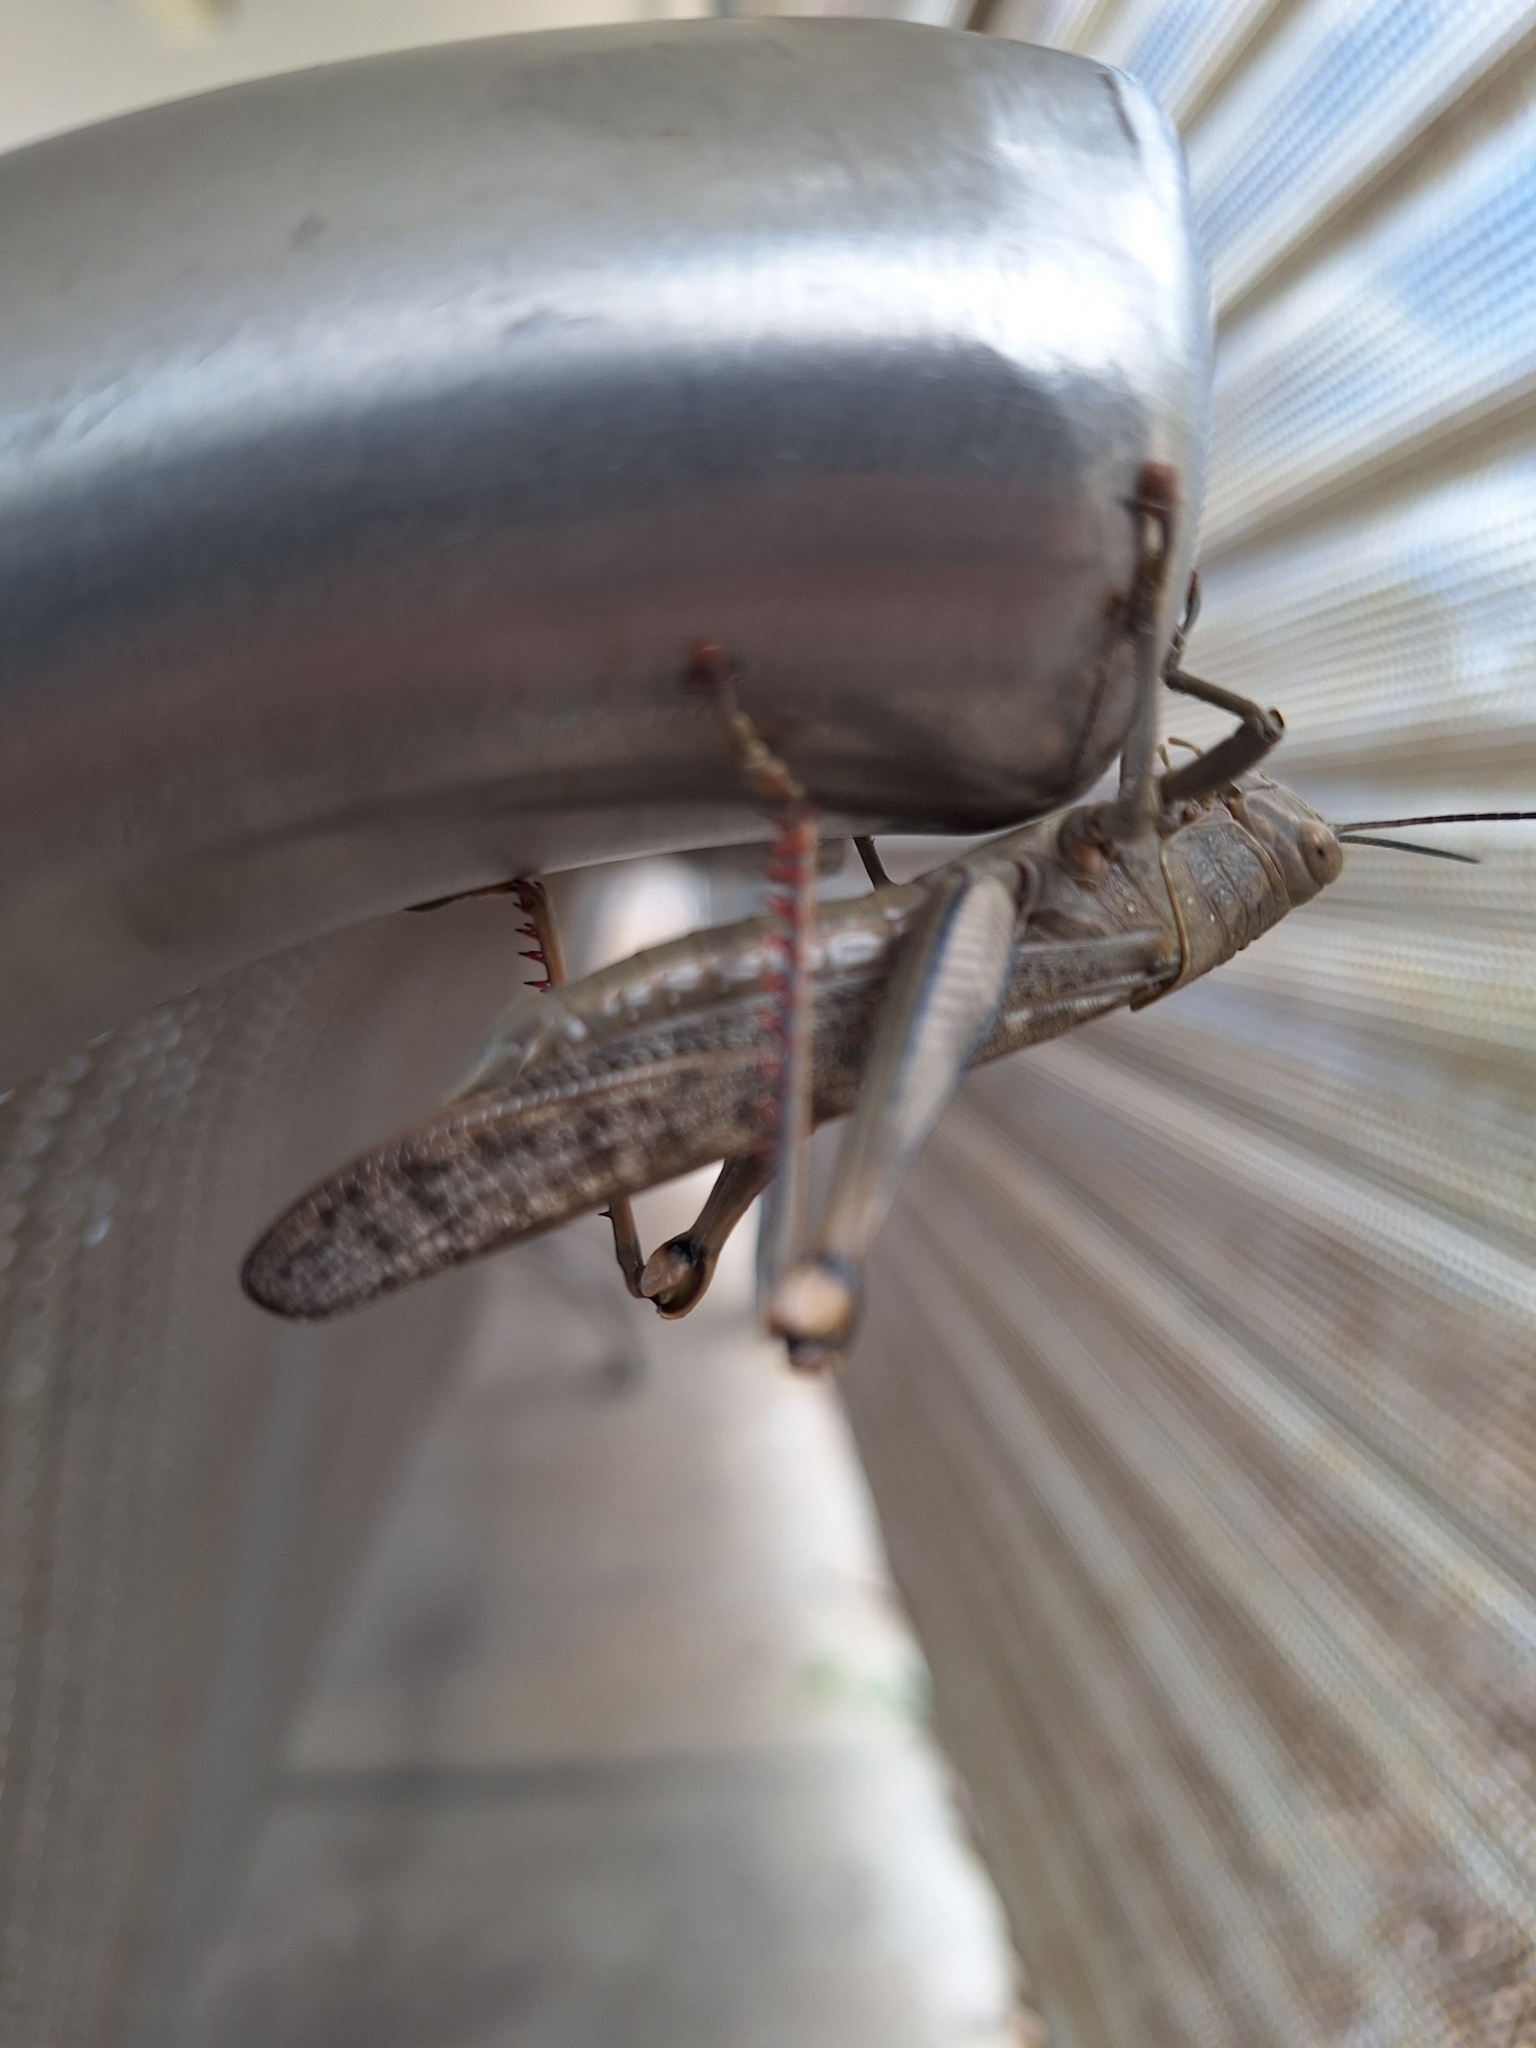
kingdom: Animalia
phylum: Arthropoda
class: Insecta
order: Orthoptera
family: Acrididae
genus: Valanga
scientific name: Valanga irregularis
